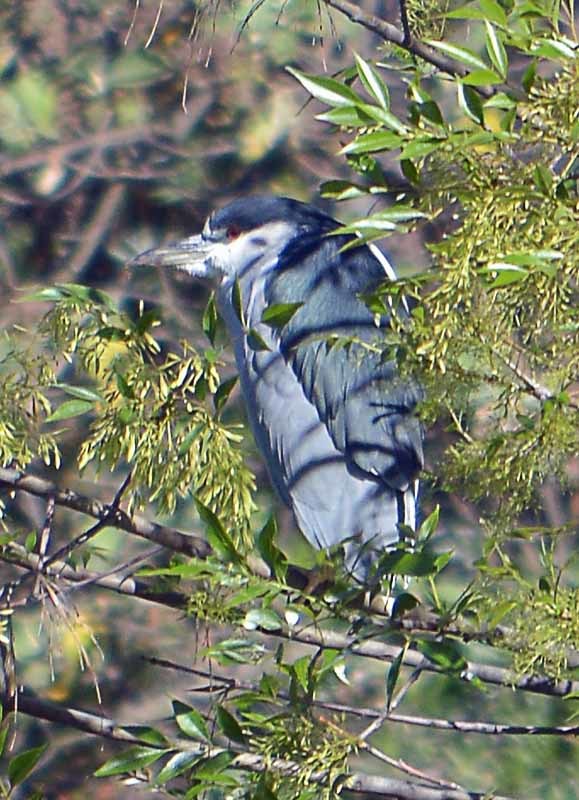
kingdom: Animalia
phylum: Chordata
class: Aves
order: Pelecaniformes
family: Ardeidae
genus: Nycticorax
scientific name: Nycticorax nycticorax
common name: Black-crowned night heron
